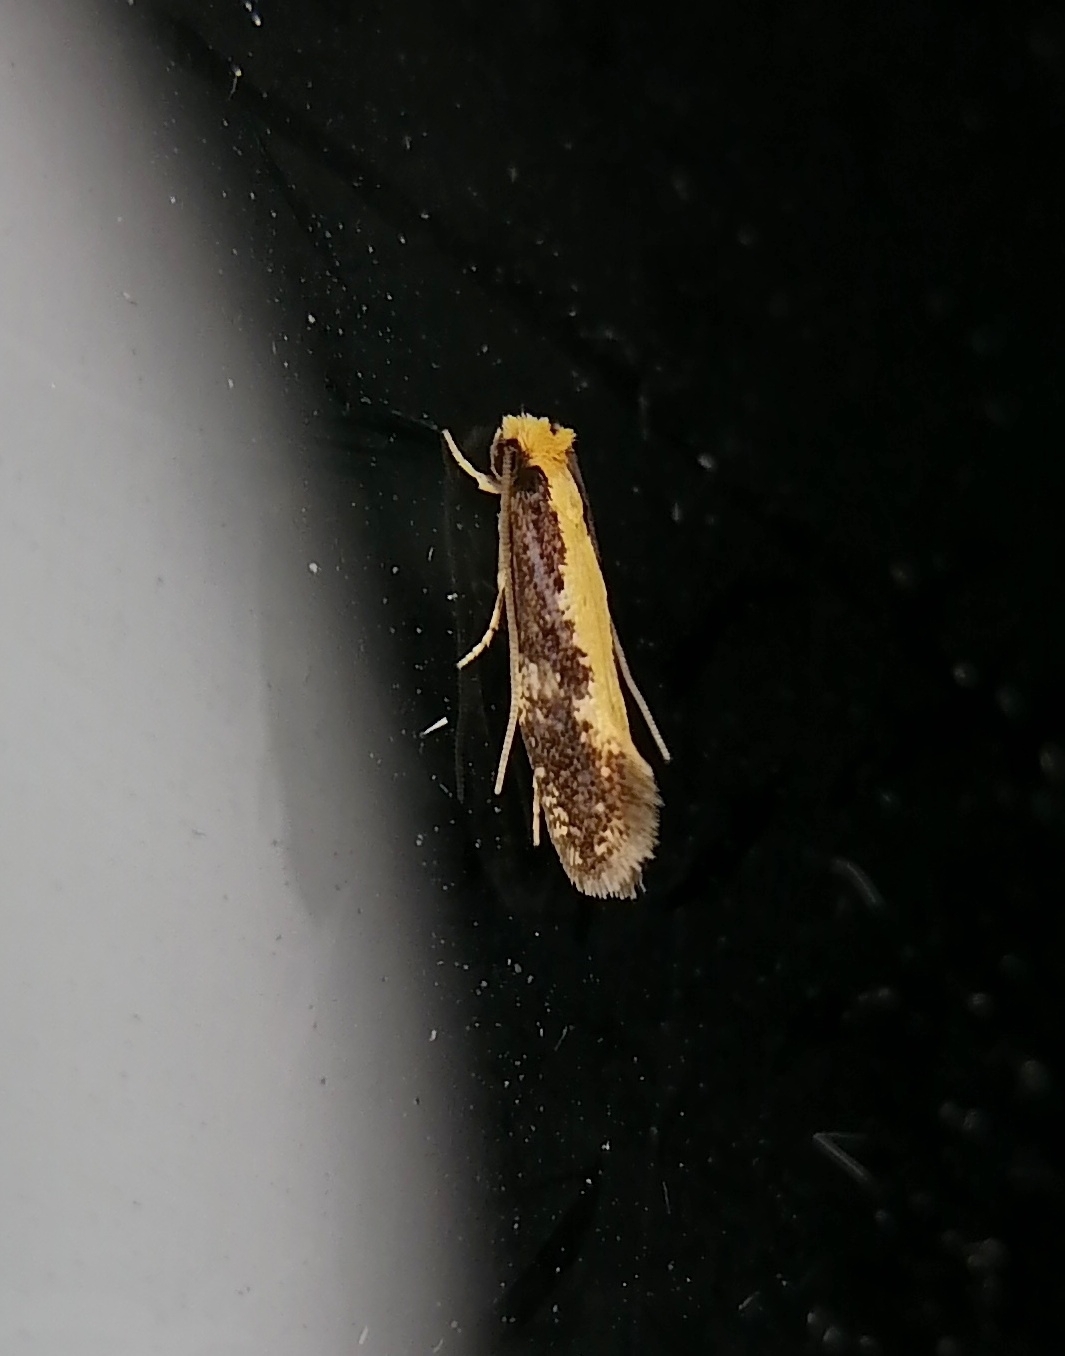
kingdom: Animalia
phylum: Arthropoda
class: Insecta
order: Lepidoptera
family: Tineidae
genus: Monopis
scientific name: Monopis obviella
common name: Tineid moth
